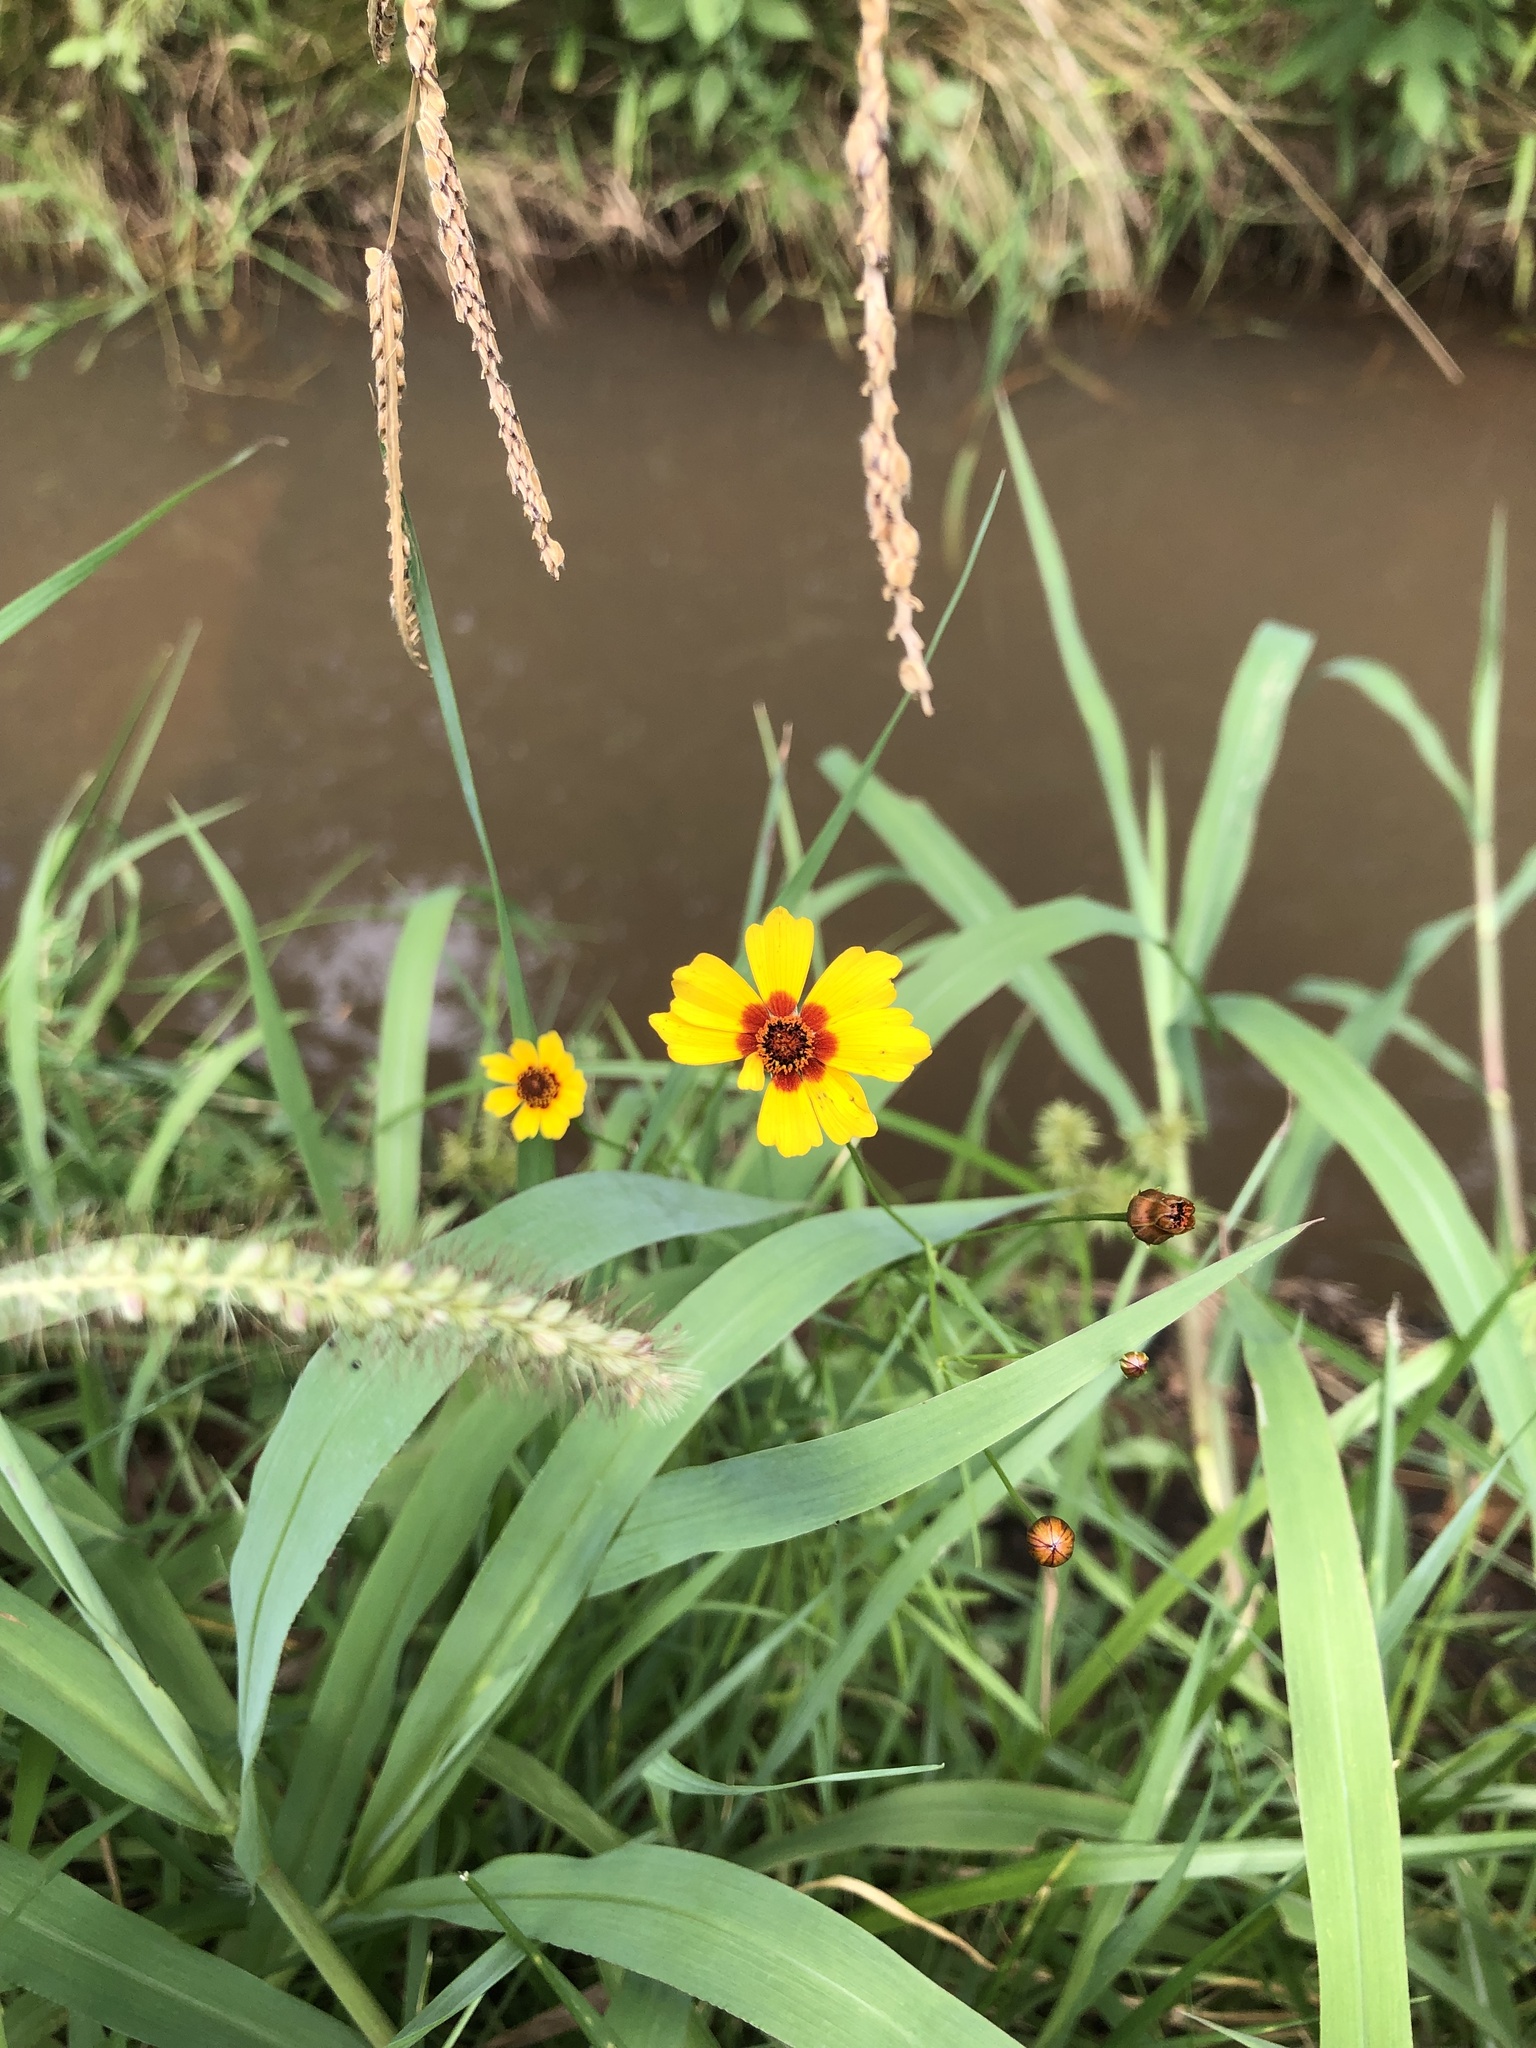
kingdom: Plantae
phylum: Tracheophyta
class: Magnoliopsida
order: Asterales
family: Asteraceae
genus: Coreopsis
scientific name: Coreopsis tinctoria
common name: Garden tickseed
